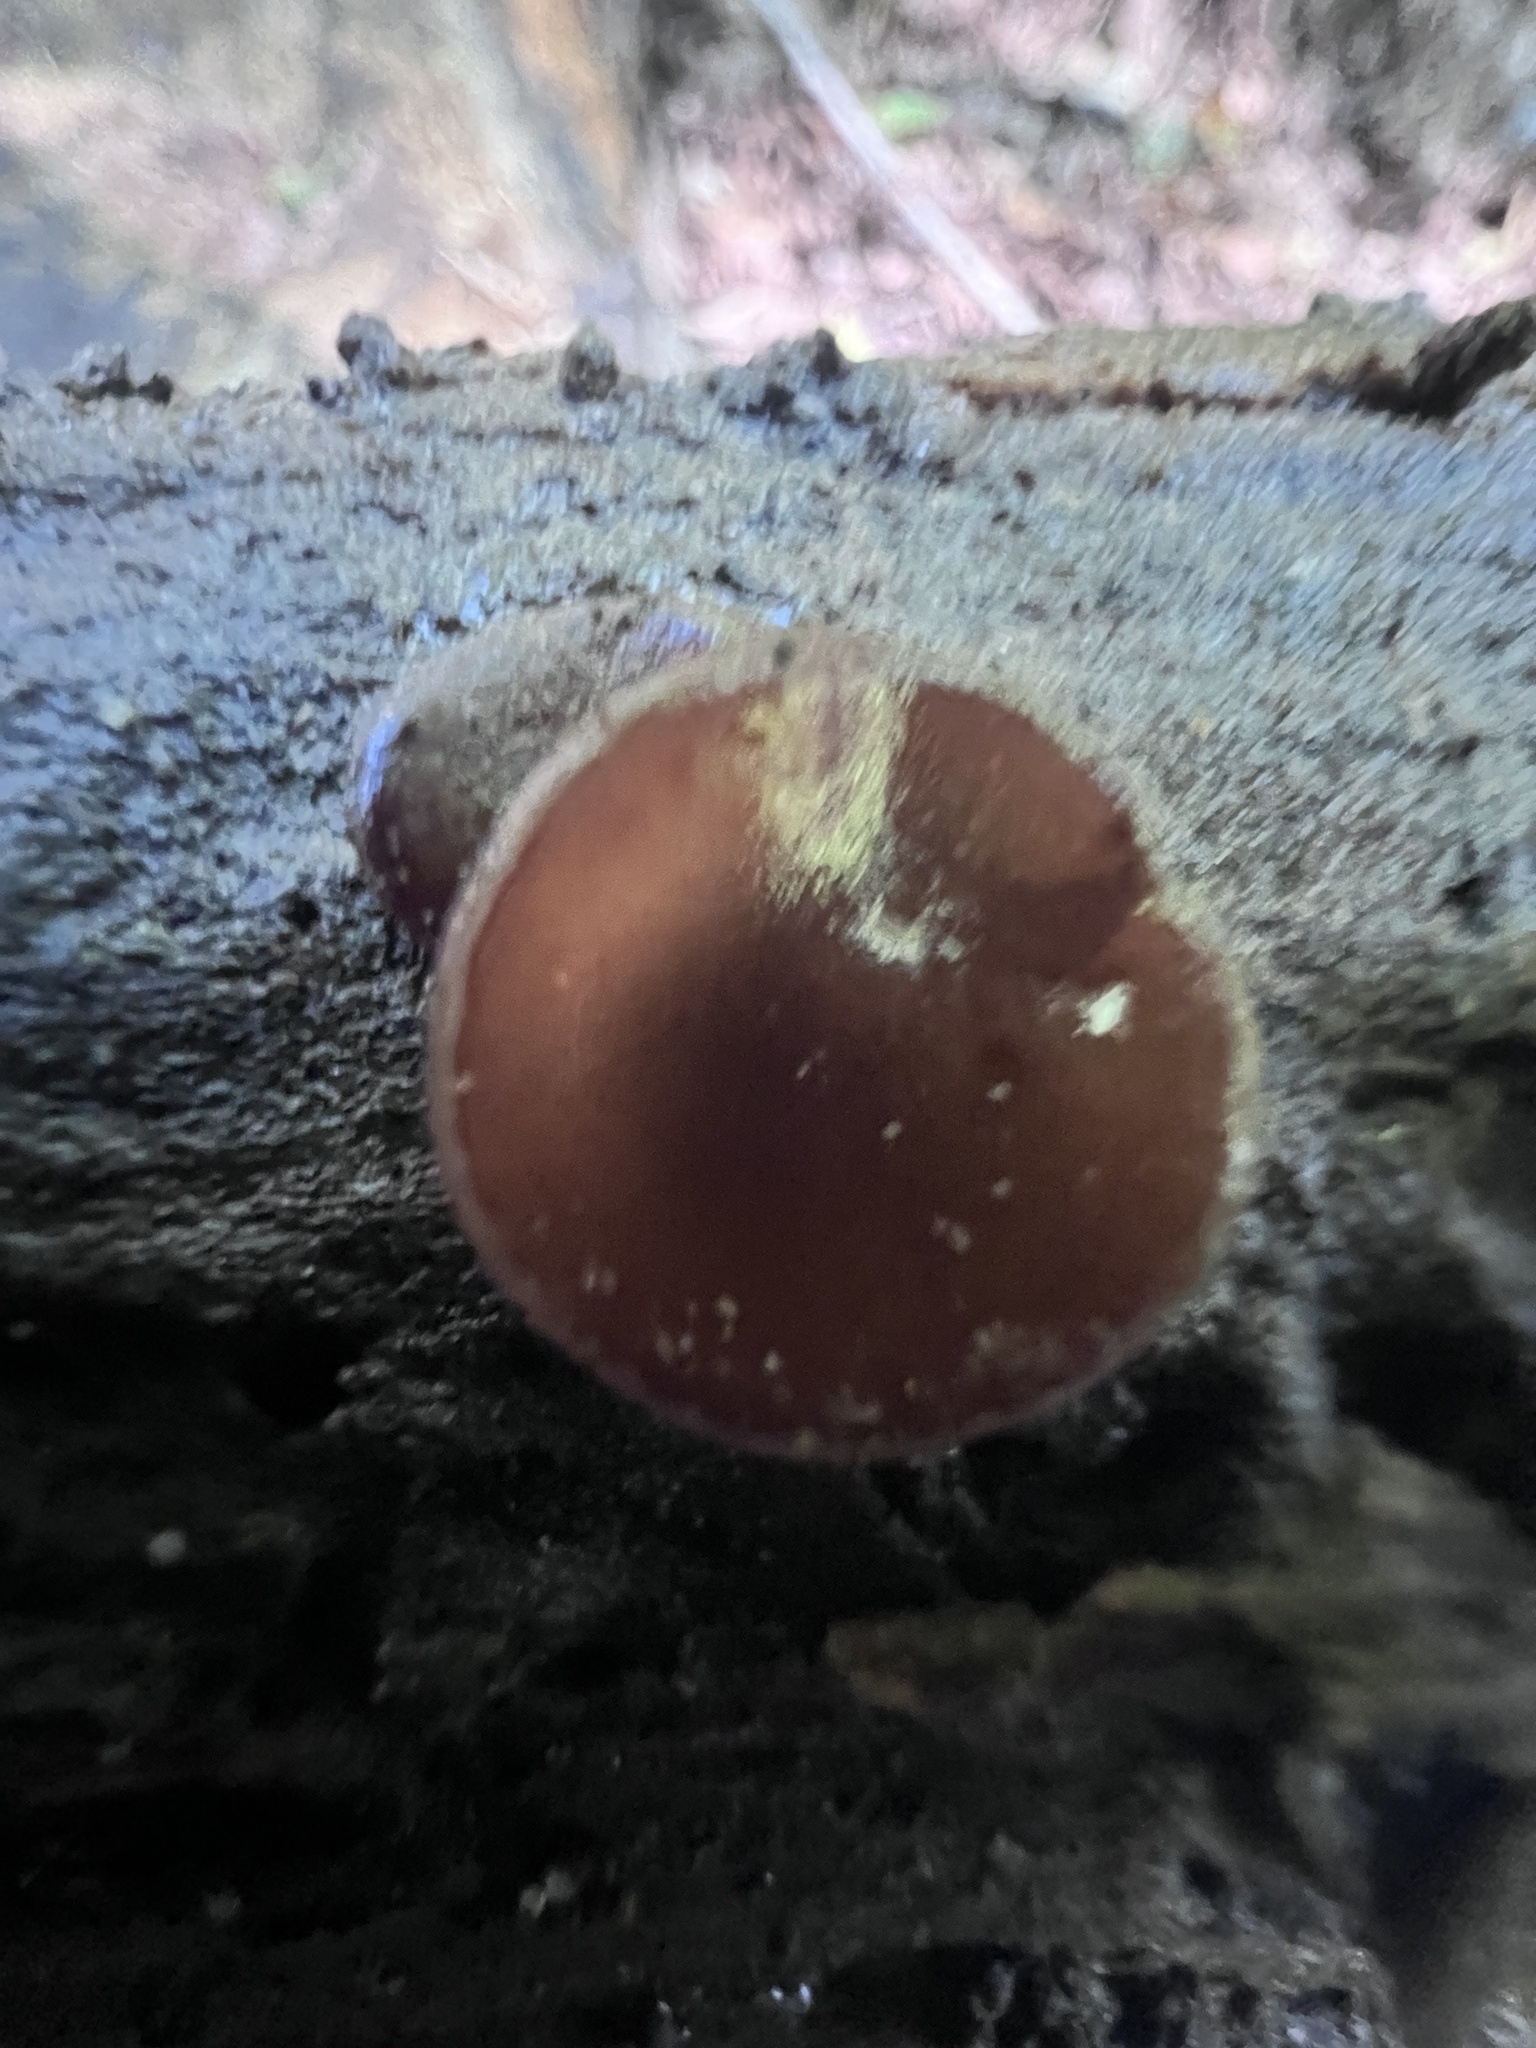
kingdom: Fungi
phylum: Ascomycota
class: Pezizomycetes
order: Pezizales
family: Pezizaceae
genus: Pachyella
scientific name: Pachyella clypeata
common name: Copper penny fungus
